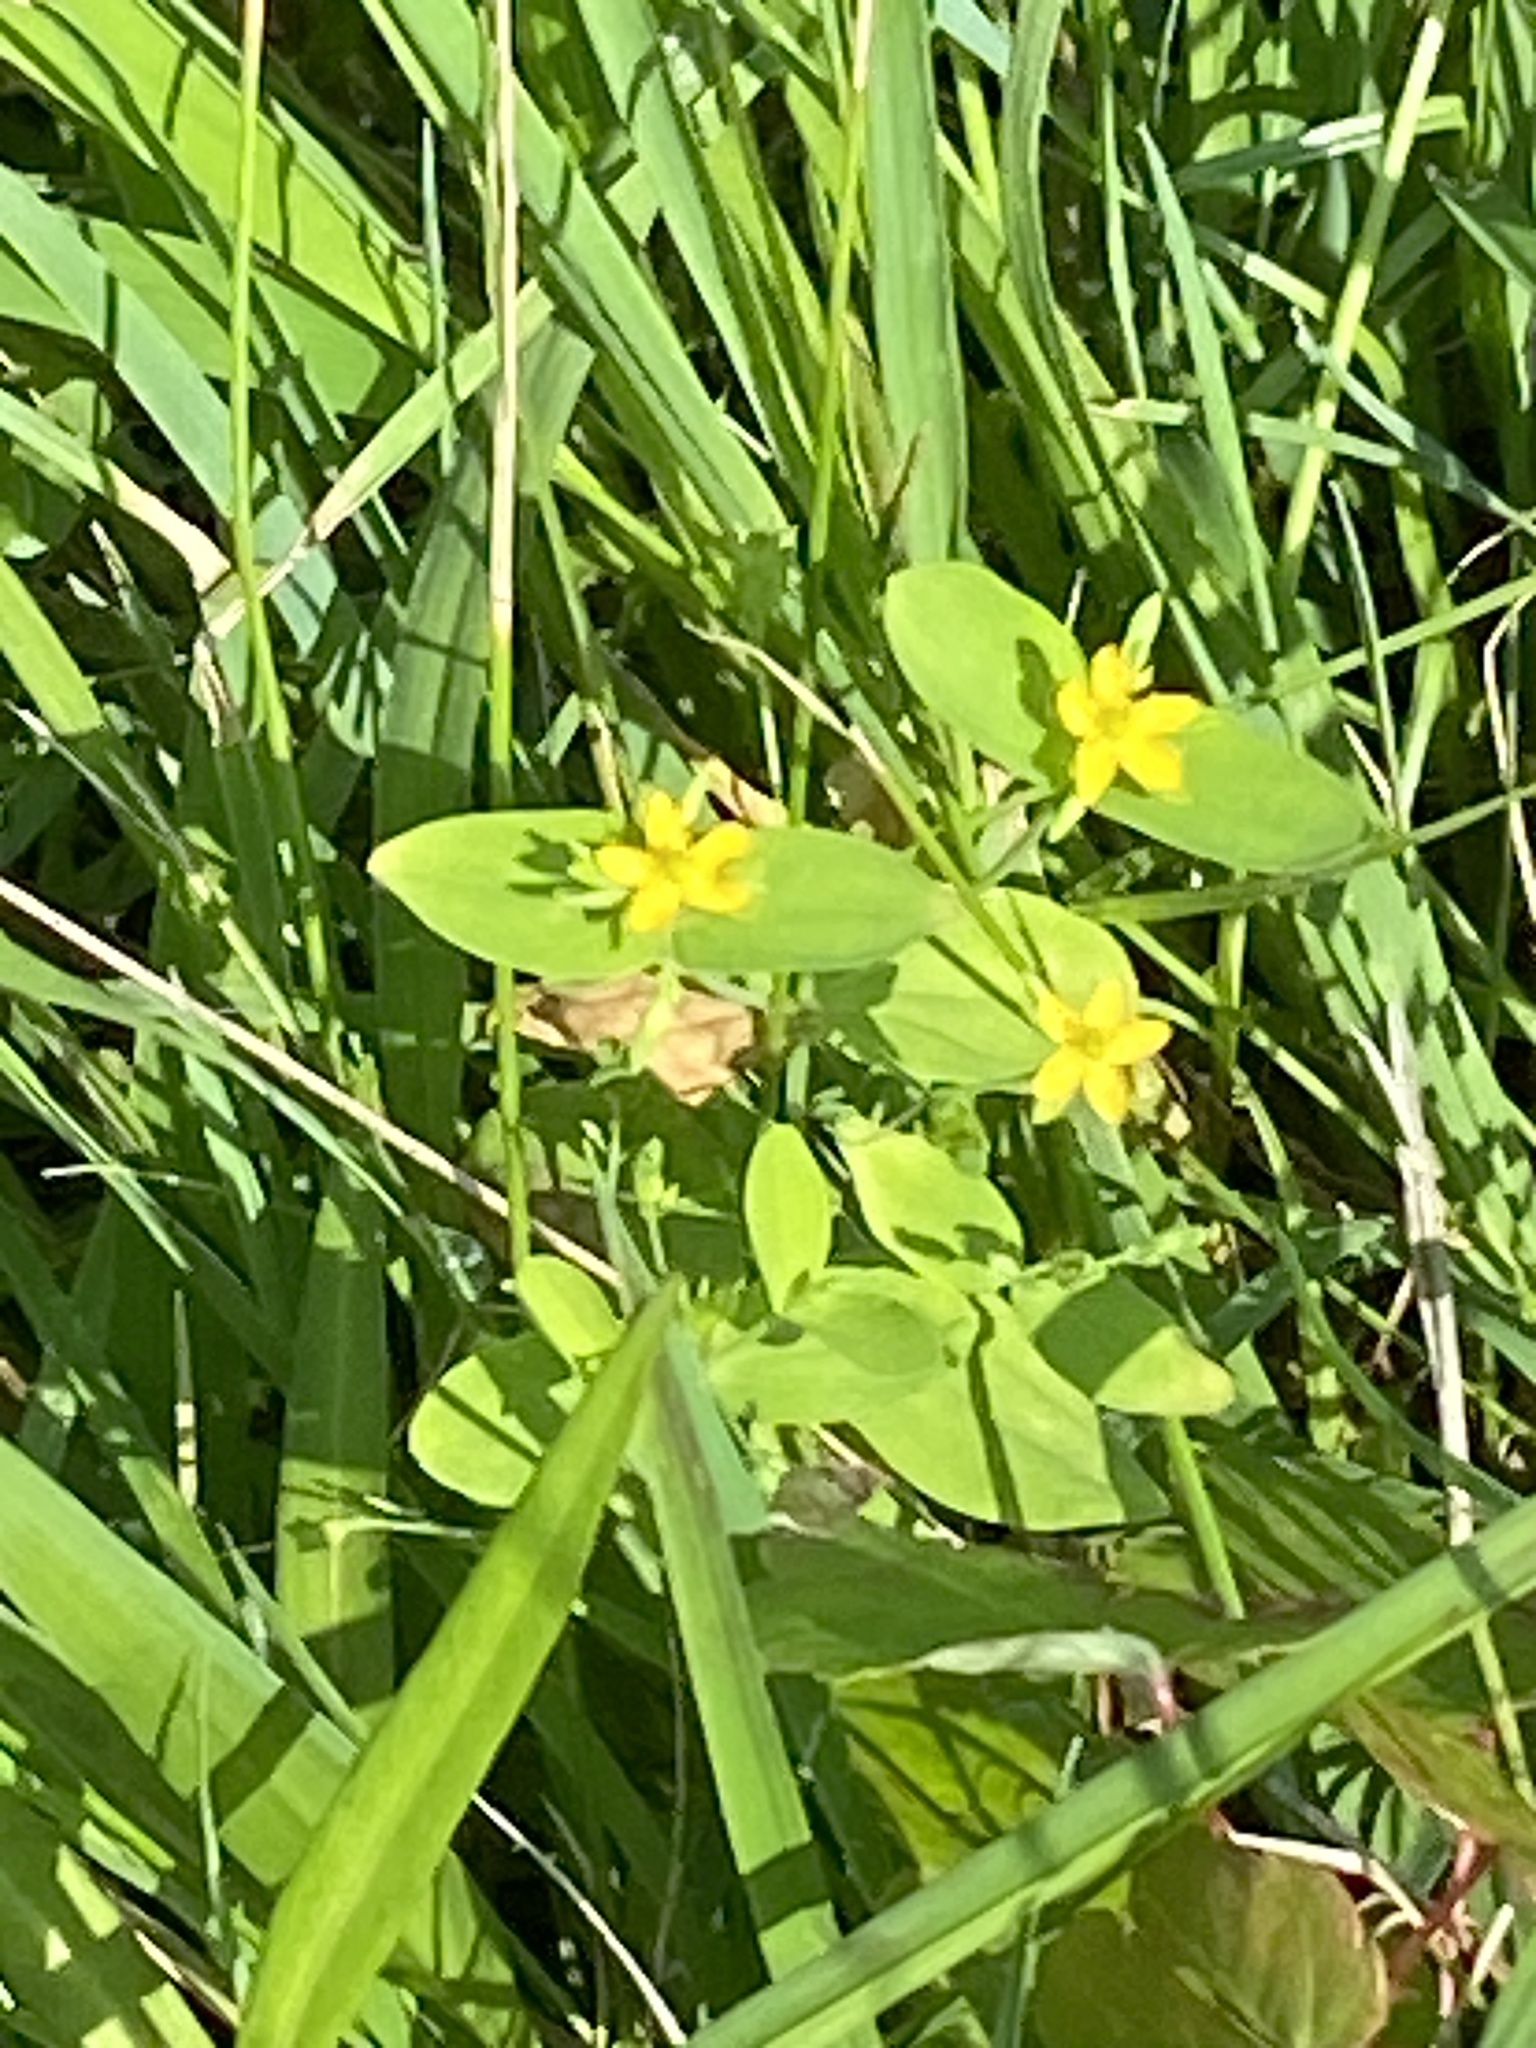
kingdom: Plantae
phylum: Tracheophyta
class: Magnoliopsida
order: Malpighiales
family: Hypericaceae
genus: Hypericum
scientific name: Hypericum mutilum
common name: Dwarf st. john's-wort
